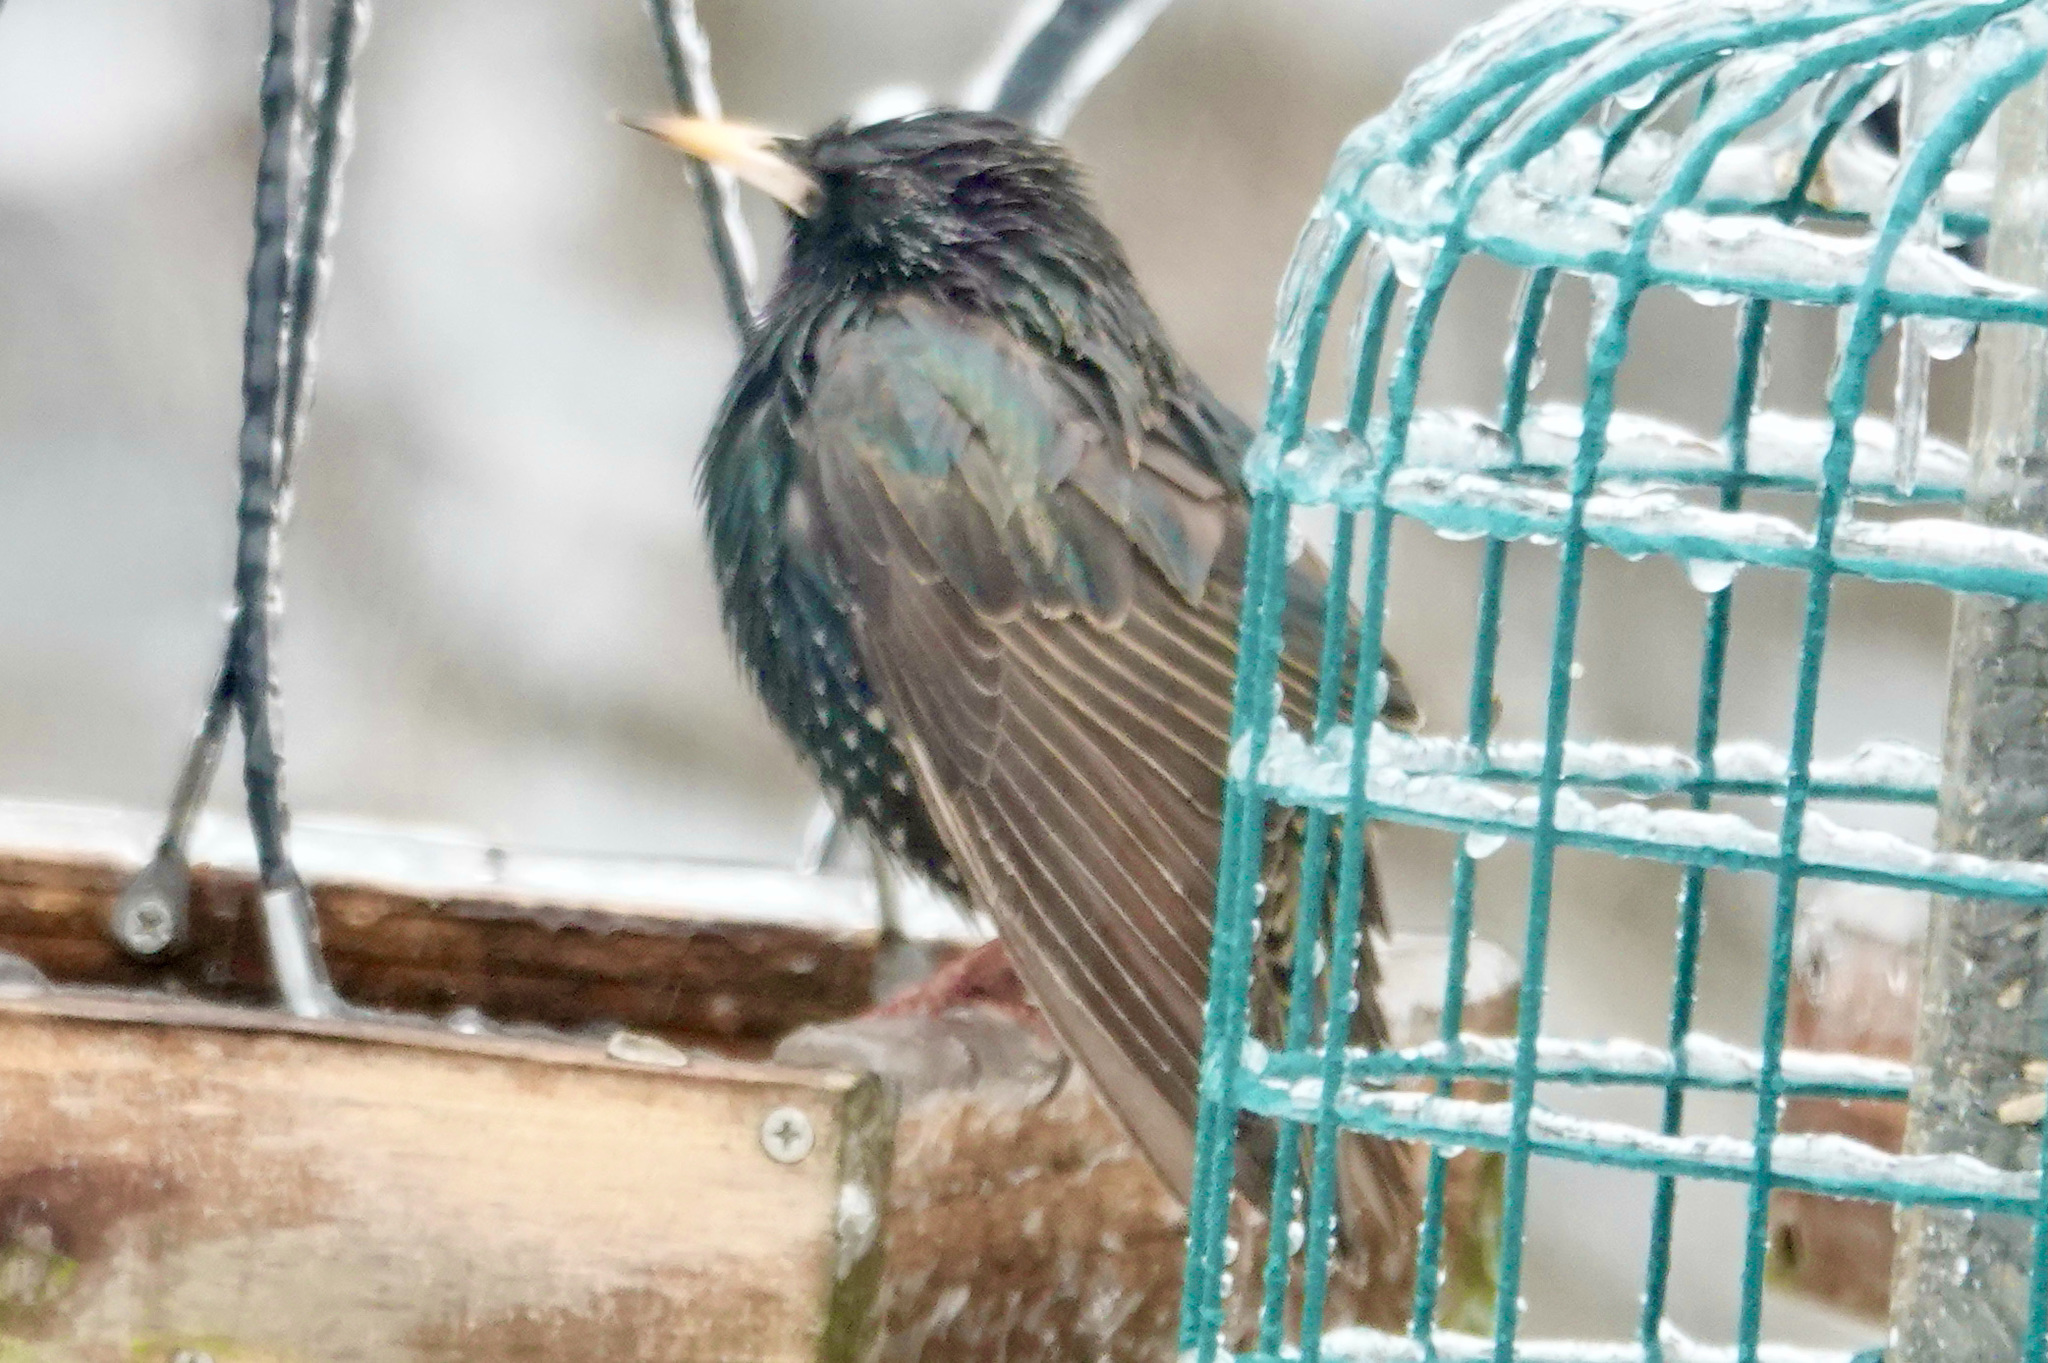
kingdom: Animalia
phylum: Chordata
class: Aves
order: Passeriformes
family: Sturnidae
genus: Sturnus
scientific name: Sturnus vulgaris
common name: Common starling
